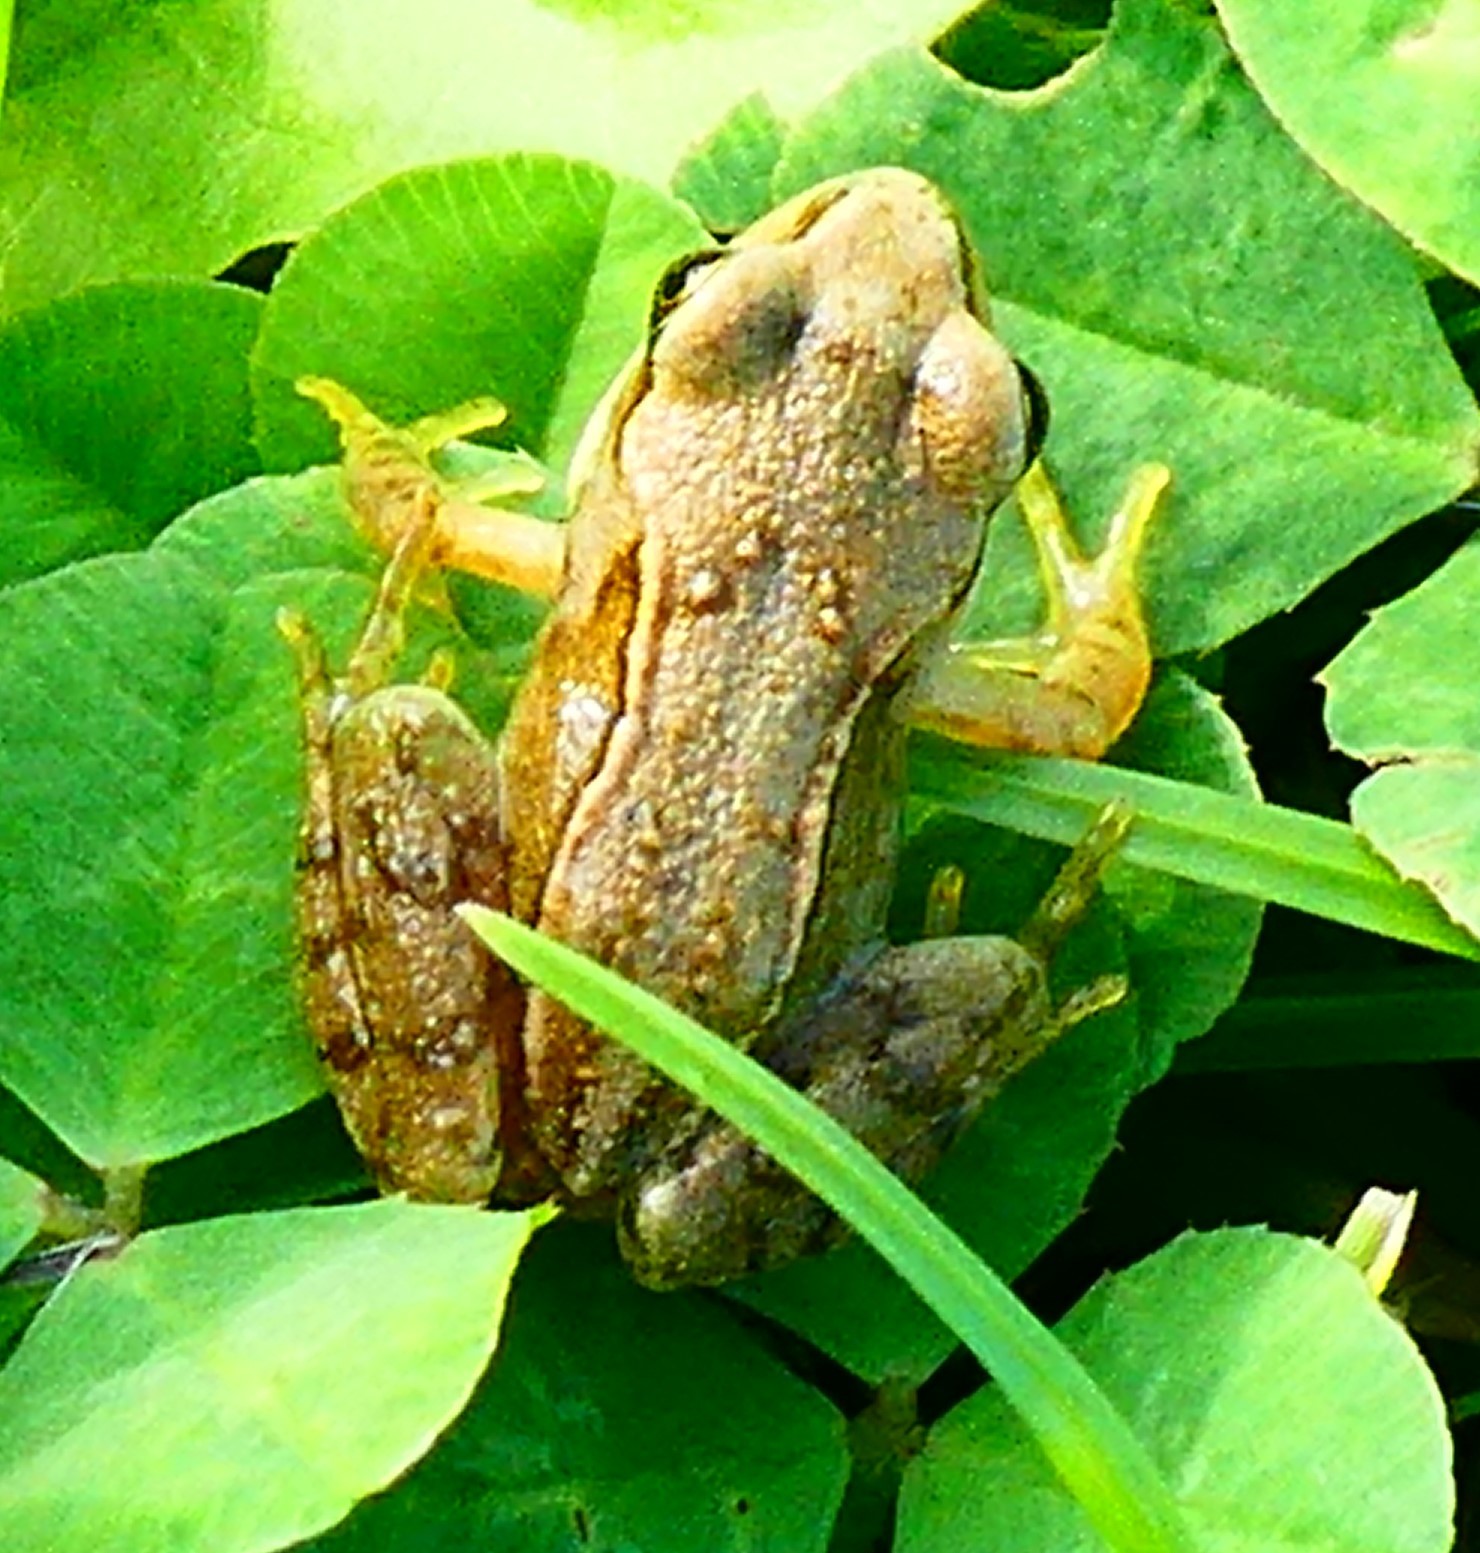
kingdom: Animalia
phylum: Chordata
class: Amphibia
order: Anura
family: Ranidae
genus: Rana
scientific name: Rana temporaria
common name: Common frog
